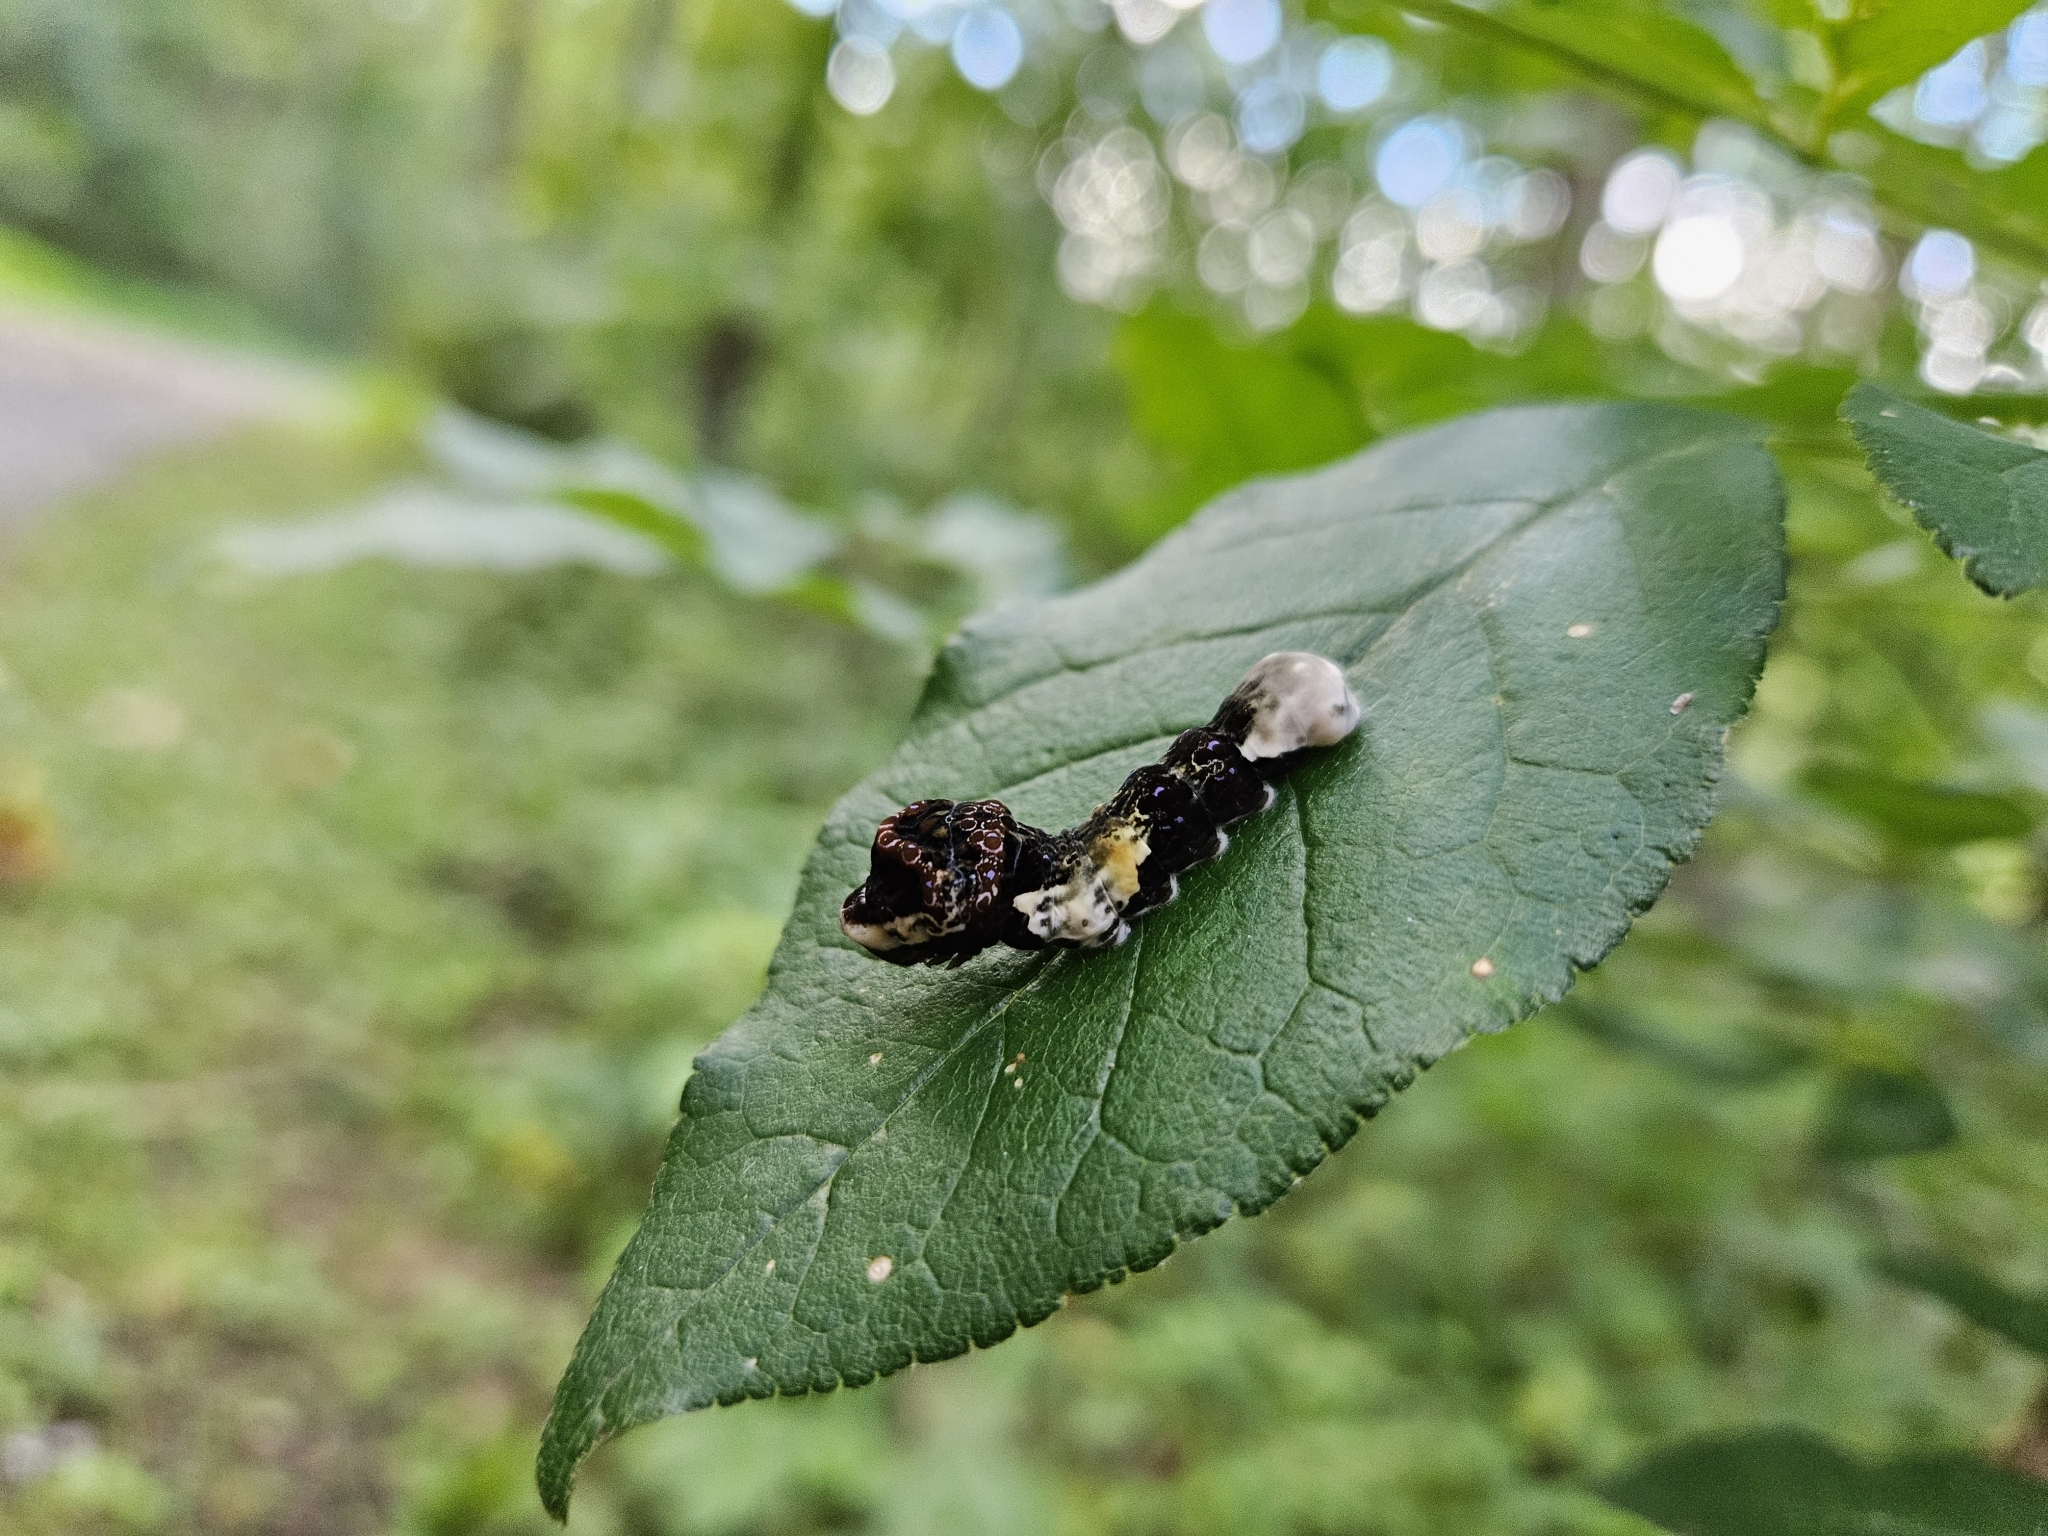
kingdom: Animalia
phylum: Arthropoda
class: Insecta
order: Lepidoptera
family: Papilionidae
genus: Papilio
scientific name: Papilio cresphontes
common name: Giant swallowtail
